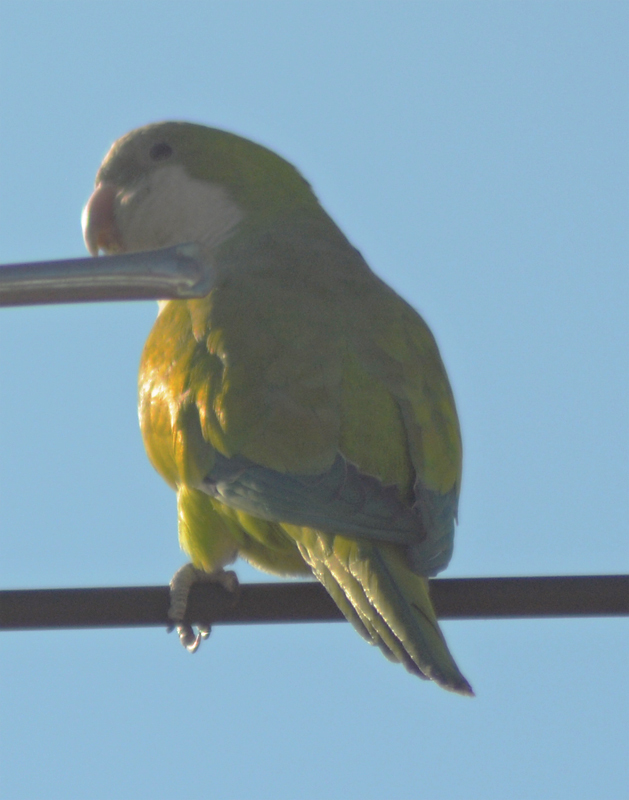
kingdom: Animalia
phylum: Chordata
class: Aves
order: Psittaciformes
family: Psittacidae
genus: Myiopsitta
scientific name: Myiopsitta monachus
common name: Monk parakeet
